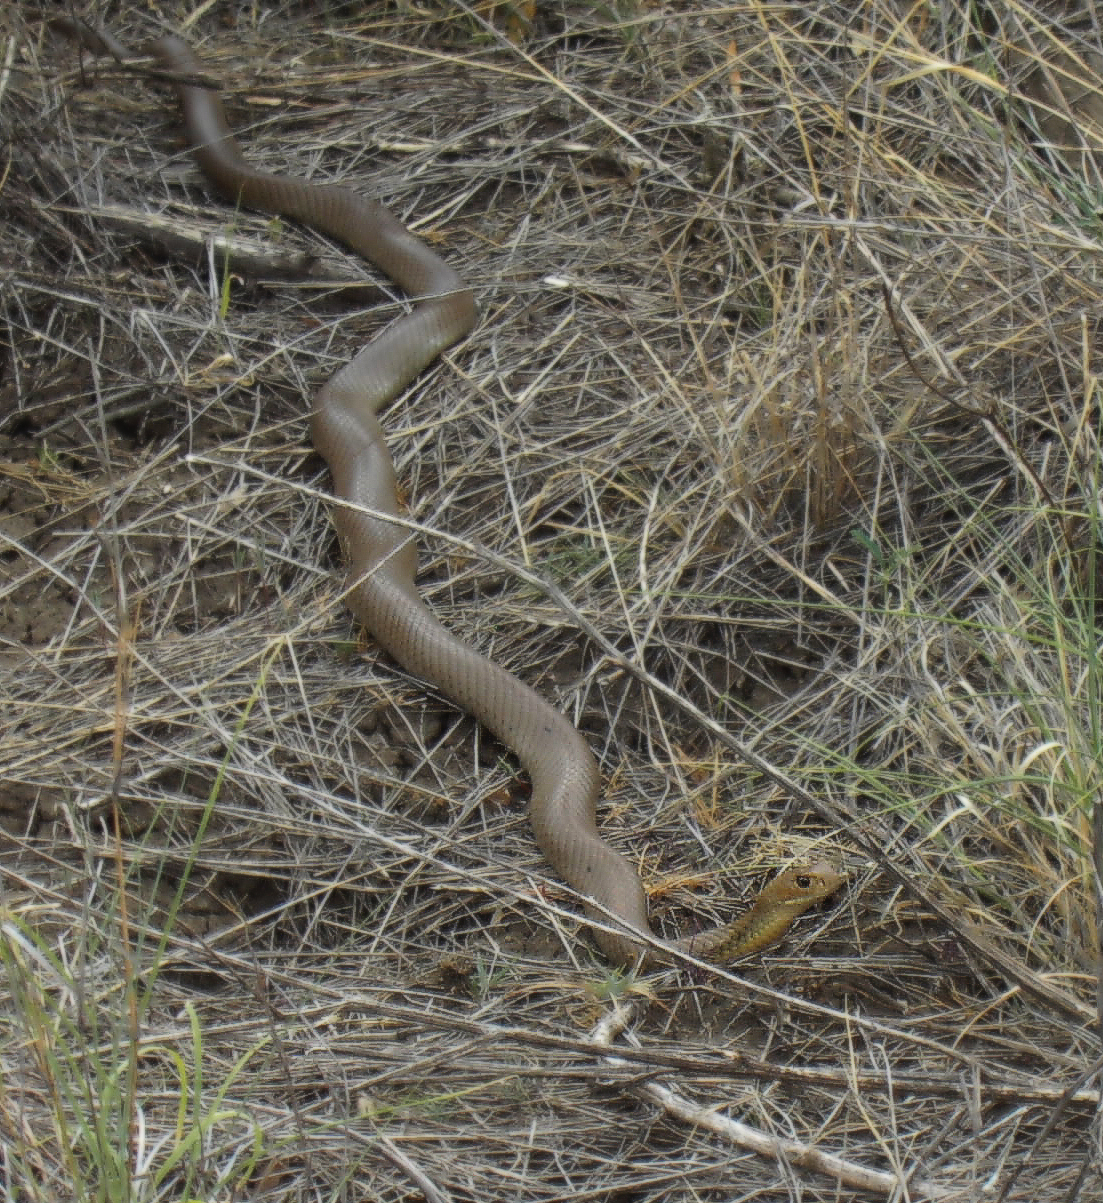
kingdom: Animalia
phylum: Chordata
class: Squamata
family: Elapidae
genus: Pseudonaja
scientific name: Pseudonaja textilis
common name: Eastern brown snake
